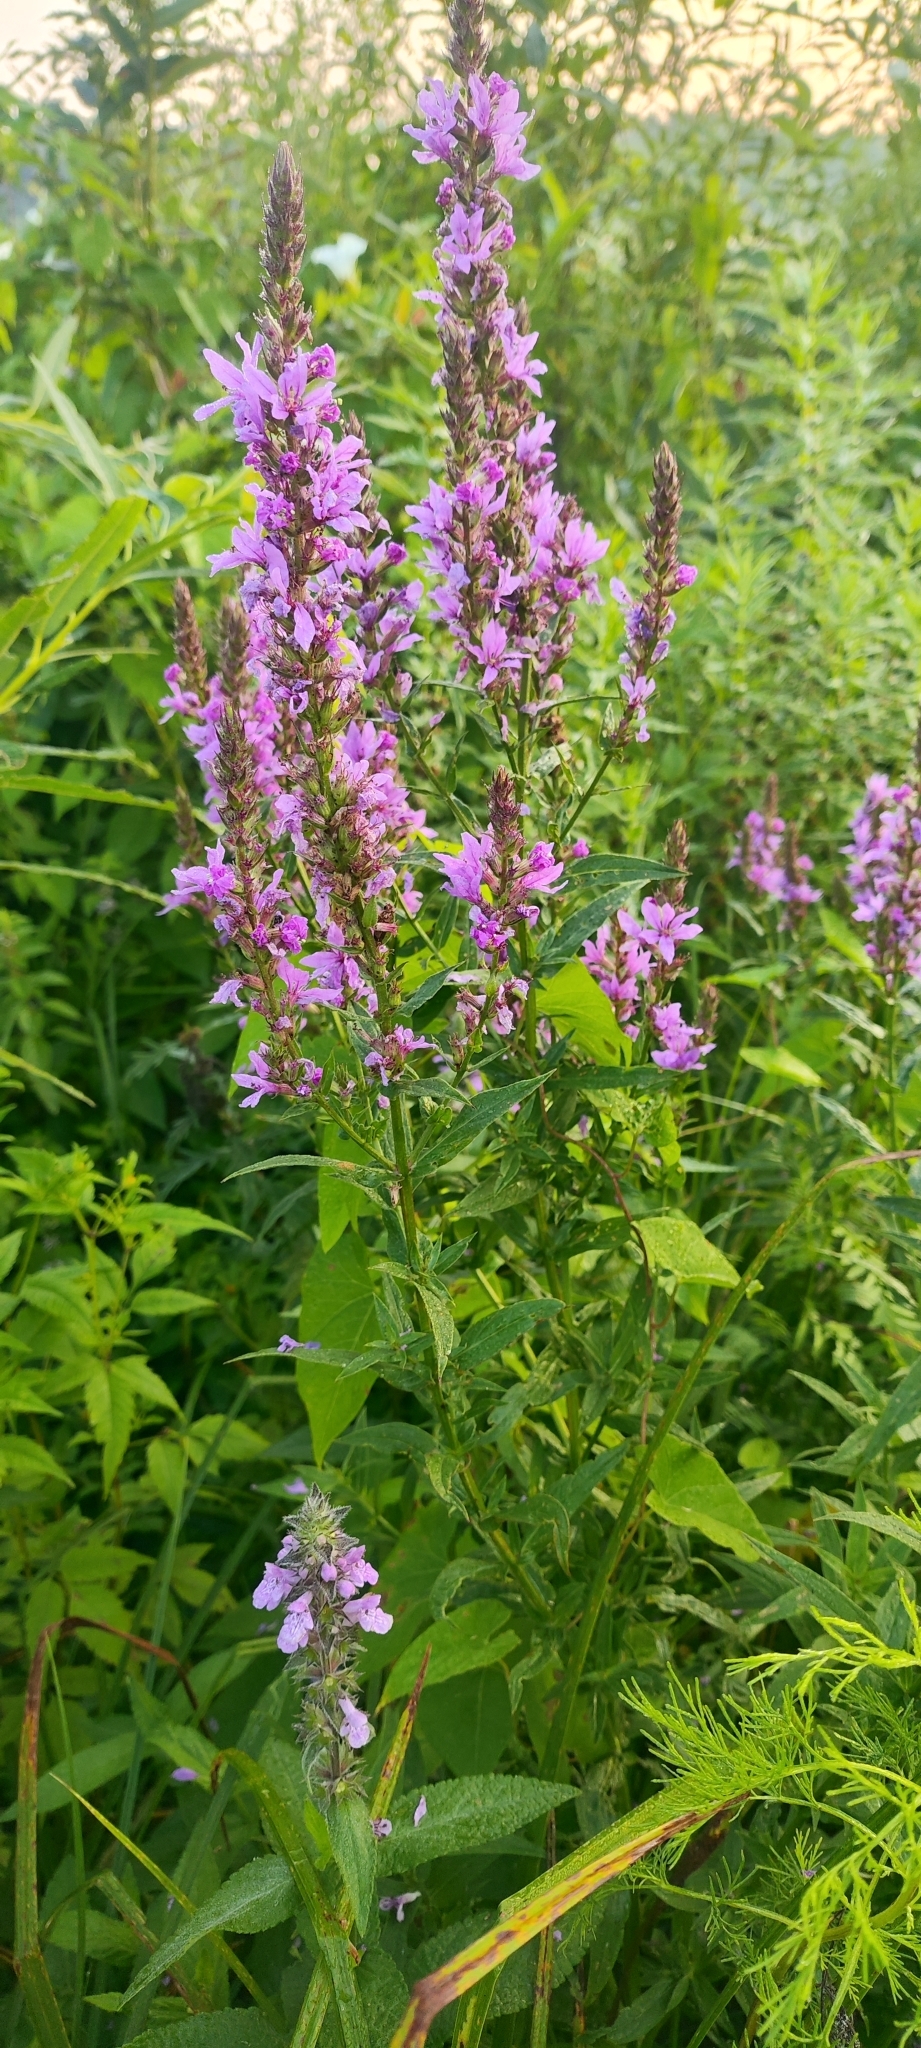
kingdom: Plantae
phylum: Tracheophyta
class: Magnoliopsida
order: Myrtales
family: Lythraceae
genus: Lythrum
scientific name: Lythrum salicaria
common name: Purple loosestrife
